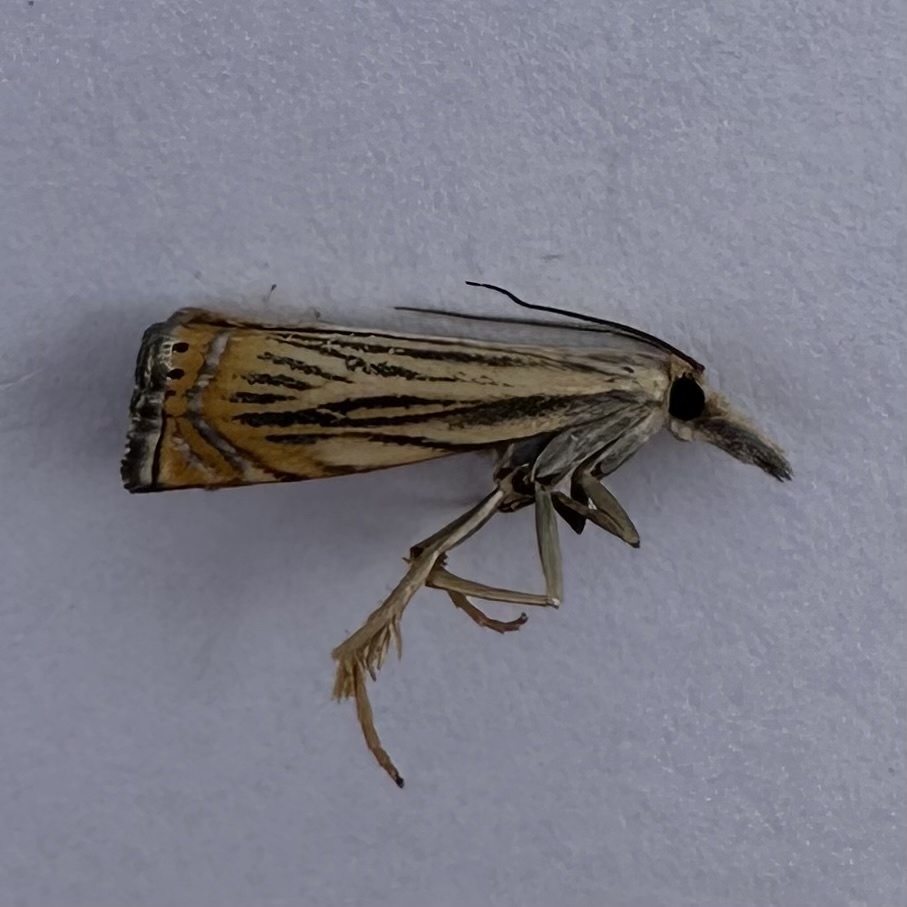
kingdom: Animalia
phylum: Arthropoda
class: Insecta
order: Lepidoptera
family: Crambidae
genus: Chrysoteuchia
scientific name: Chrysoteuchia topiarius
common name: Topiary grass-veneer
